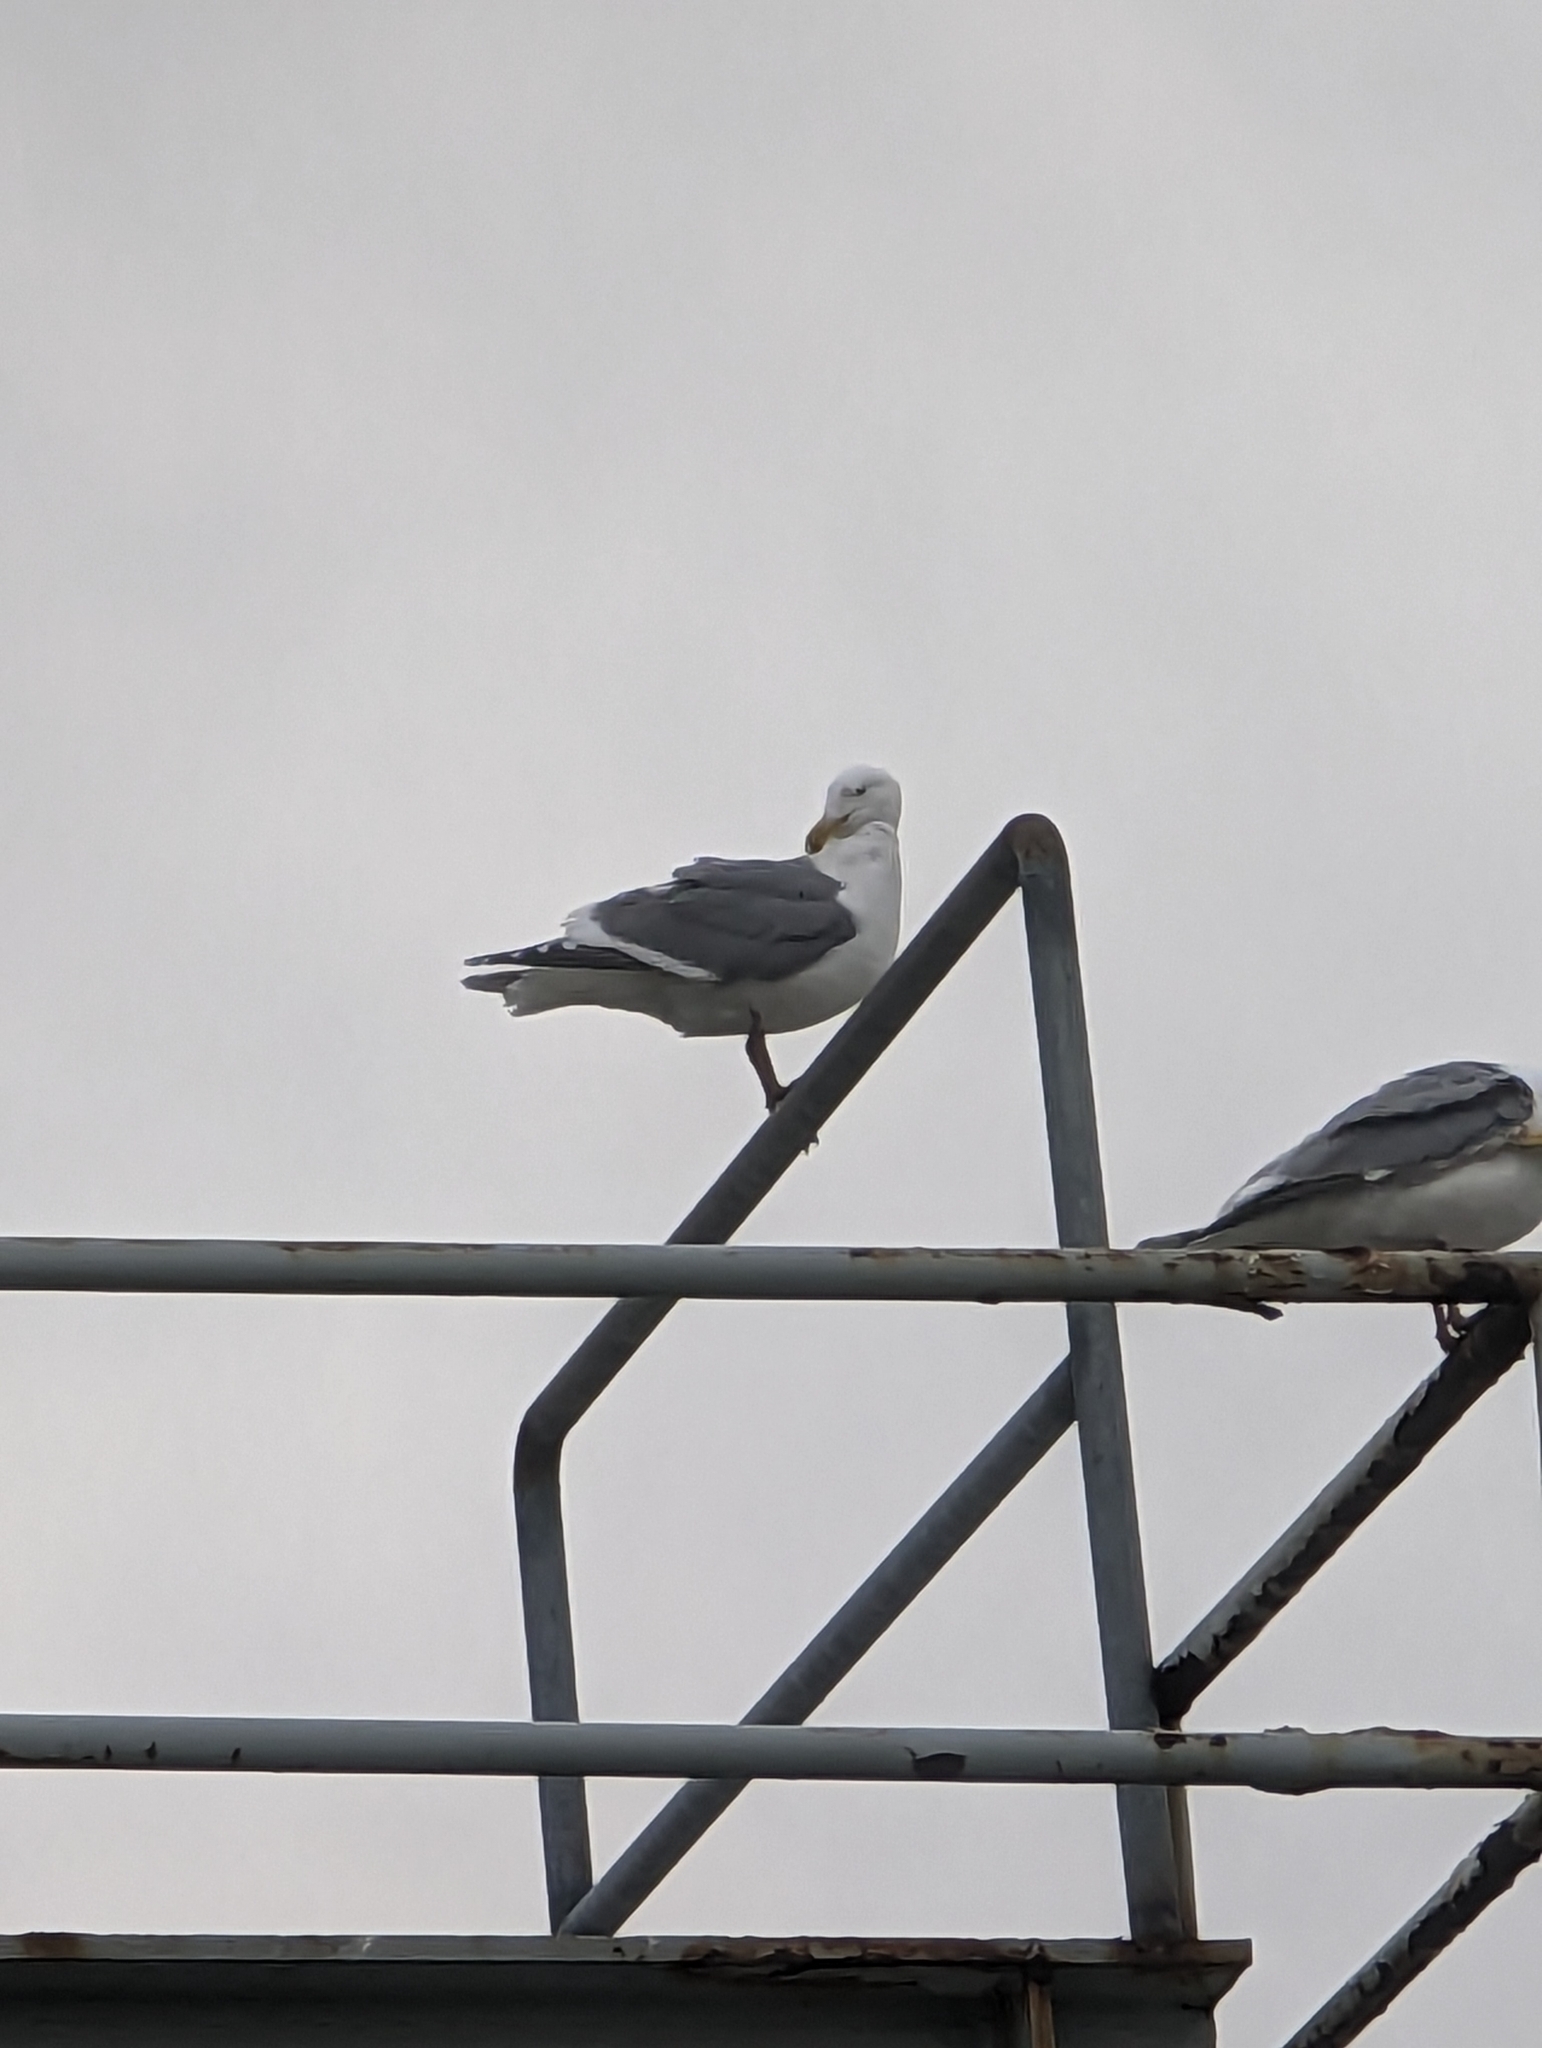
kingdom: Animalia
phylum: Chordata
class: Aves
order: Charadriiformes
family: Laridae
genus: Larus
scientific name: Larus
